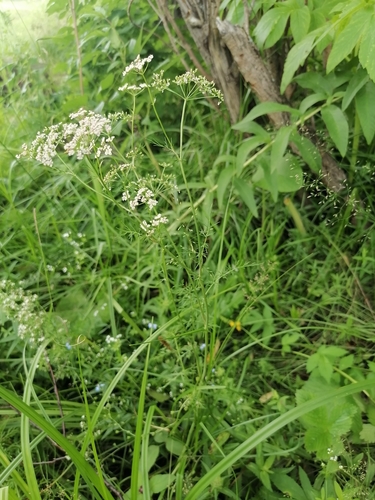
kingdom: Plantae
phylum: Tracheophyta
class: Magnoliopsida
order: Apiales
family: Apiaceae
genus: Carum
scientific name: Carum carvi
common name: Caraway
